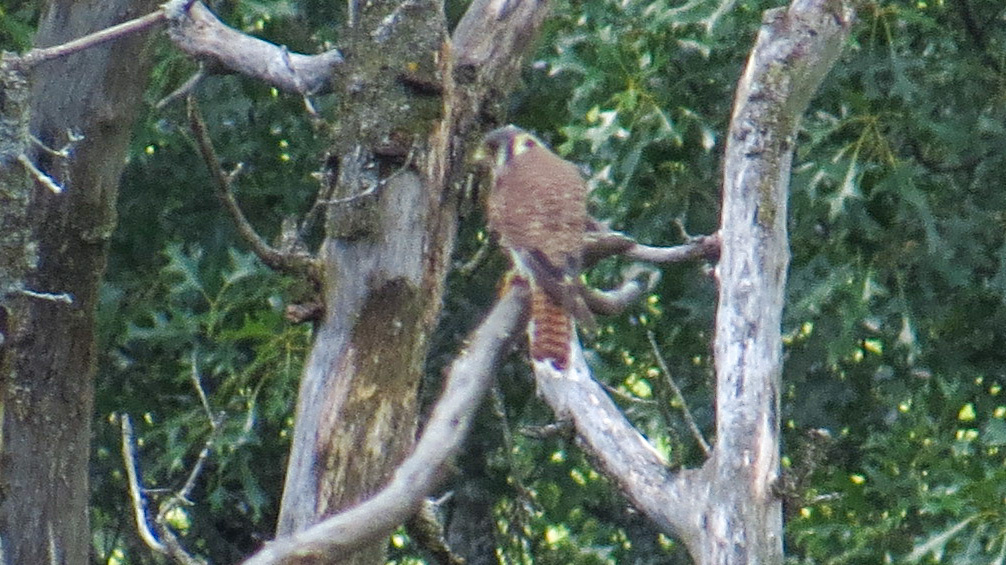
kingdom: Animalia
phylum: Chordata
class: Aves
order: Falconiformes
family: Falconidae
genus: Falco
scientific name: Falco sparverius
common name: American kestrel
